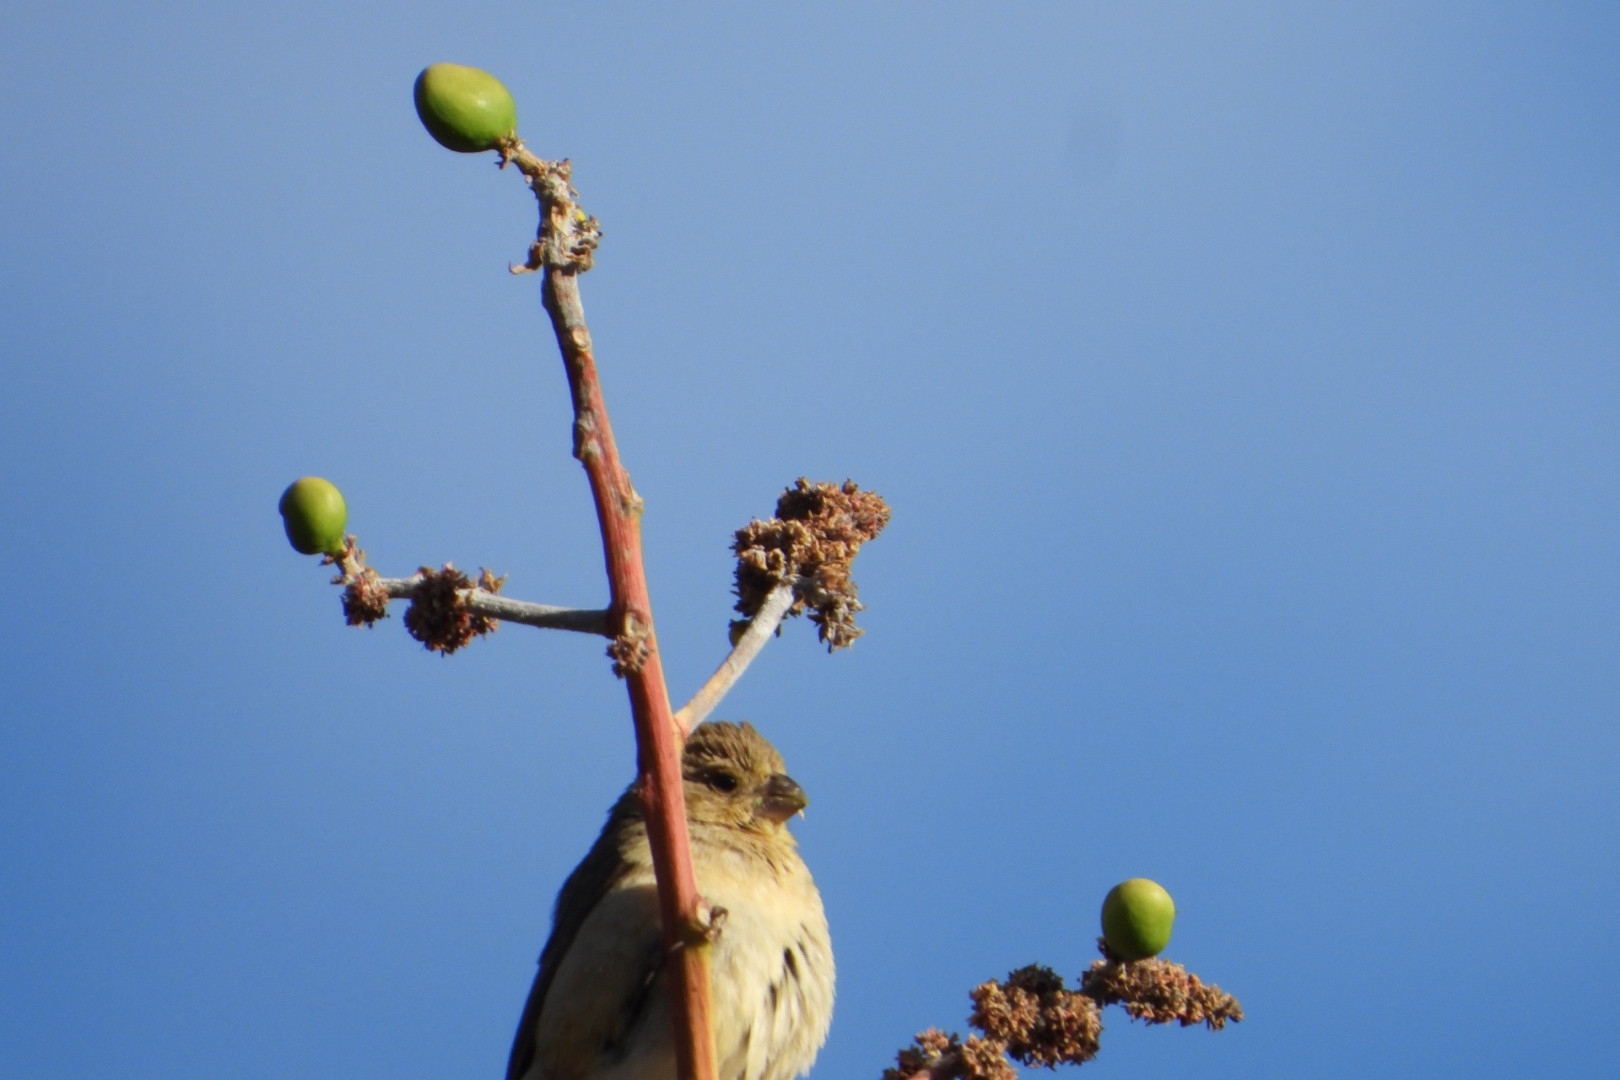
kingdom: Animalia
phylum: Chordata
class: Aves
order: Passeriformes
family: Thraupidae
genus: Sporophila
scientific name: Sporophila torqueola
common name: White-collared seedeater
